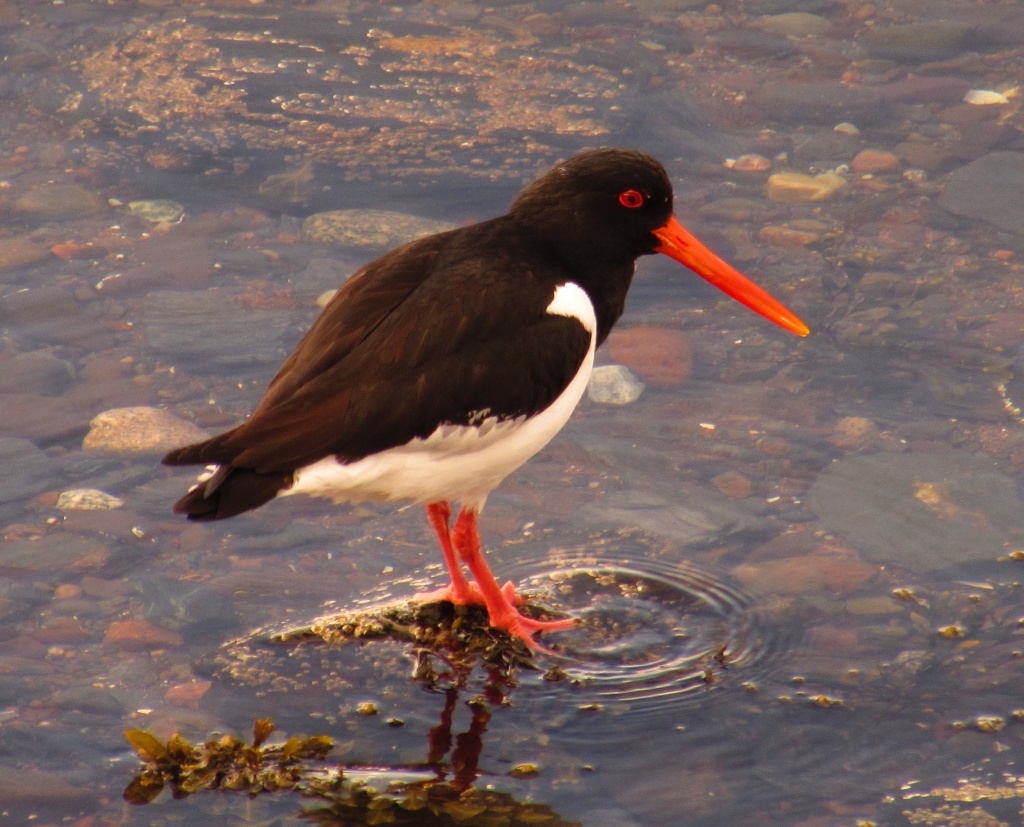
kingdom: Animalia
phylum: Chordata
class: Aves
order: Charadriiformes
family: Haematopodidae
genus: Haematopus
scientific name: Haematopus ostralegus
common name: Eurasian oystercatcher
